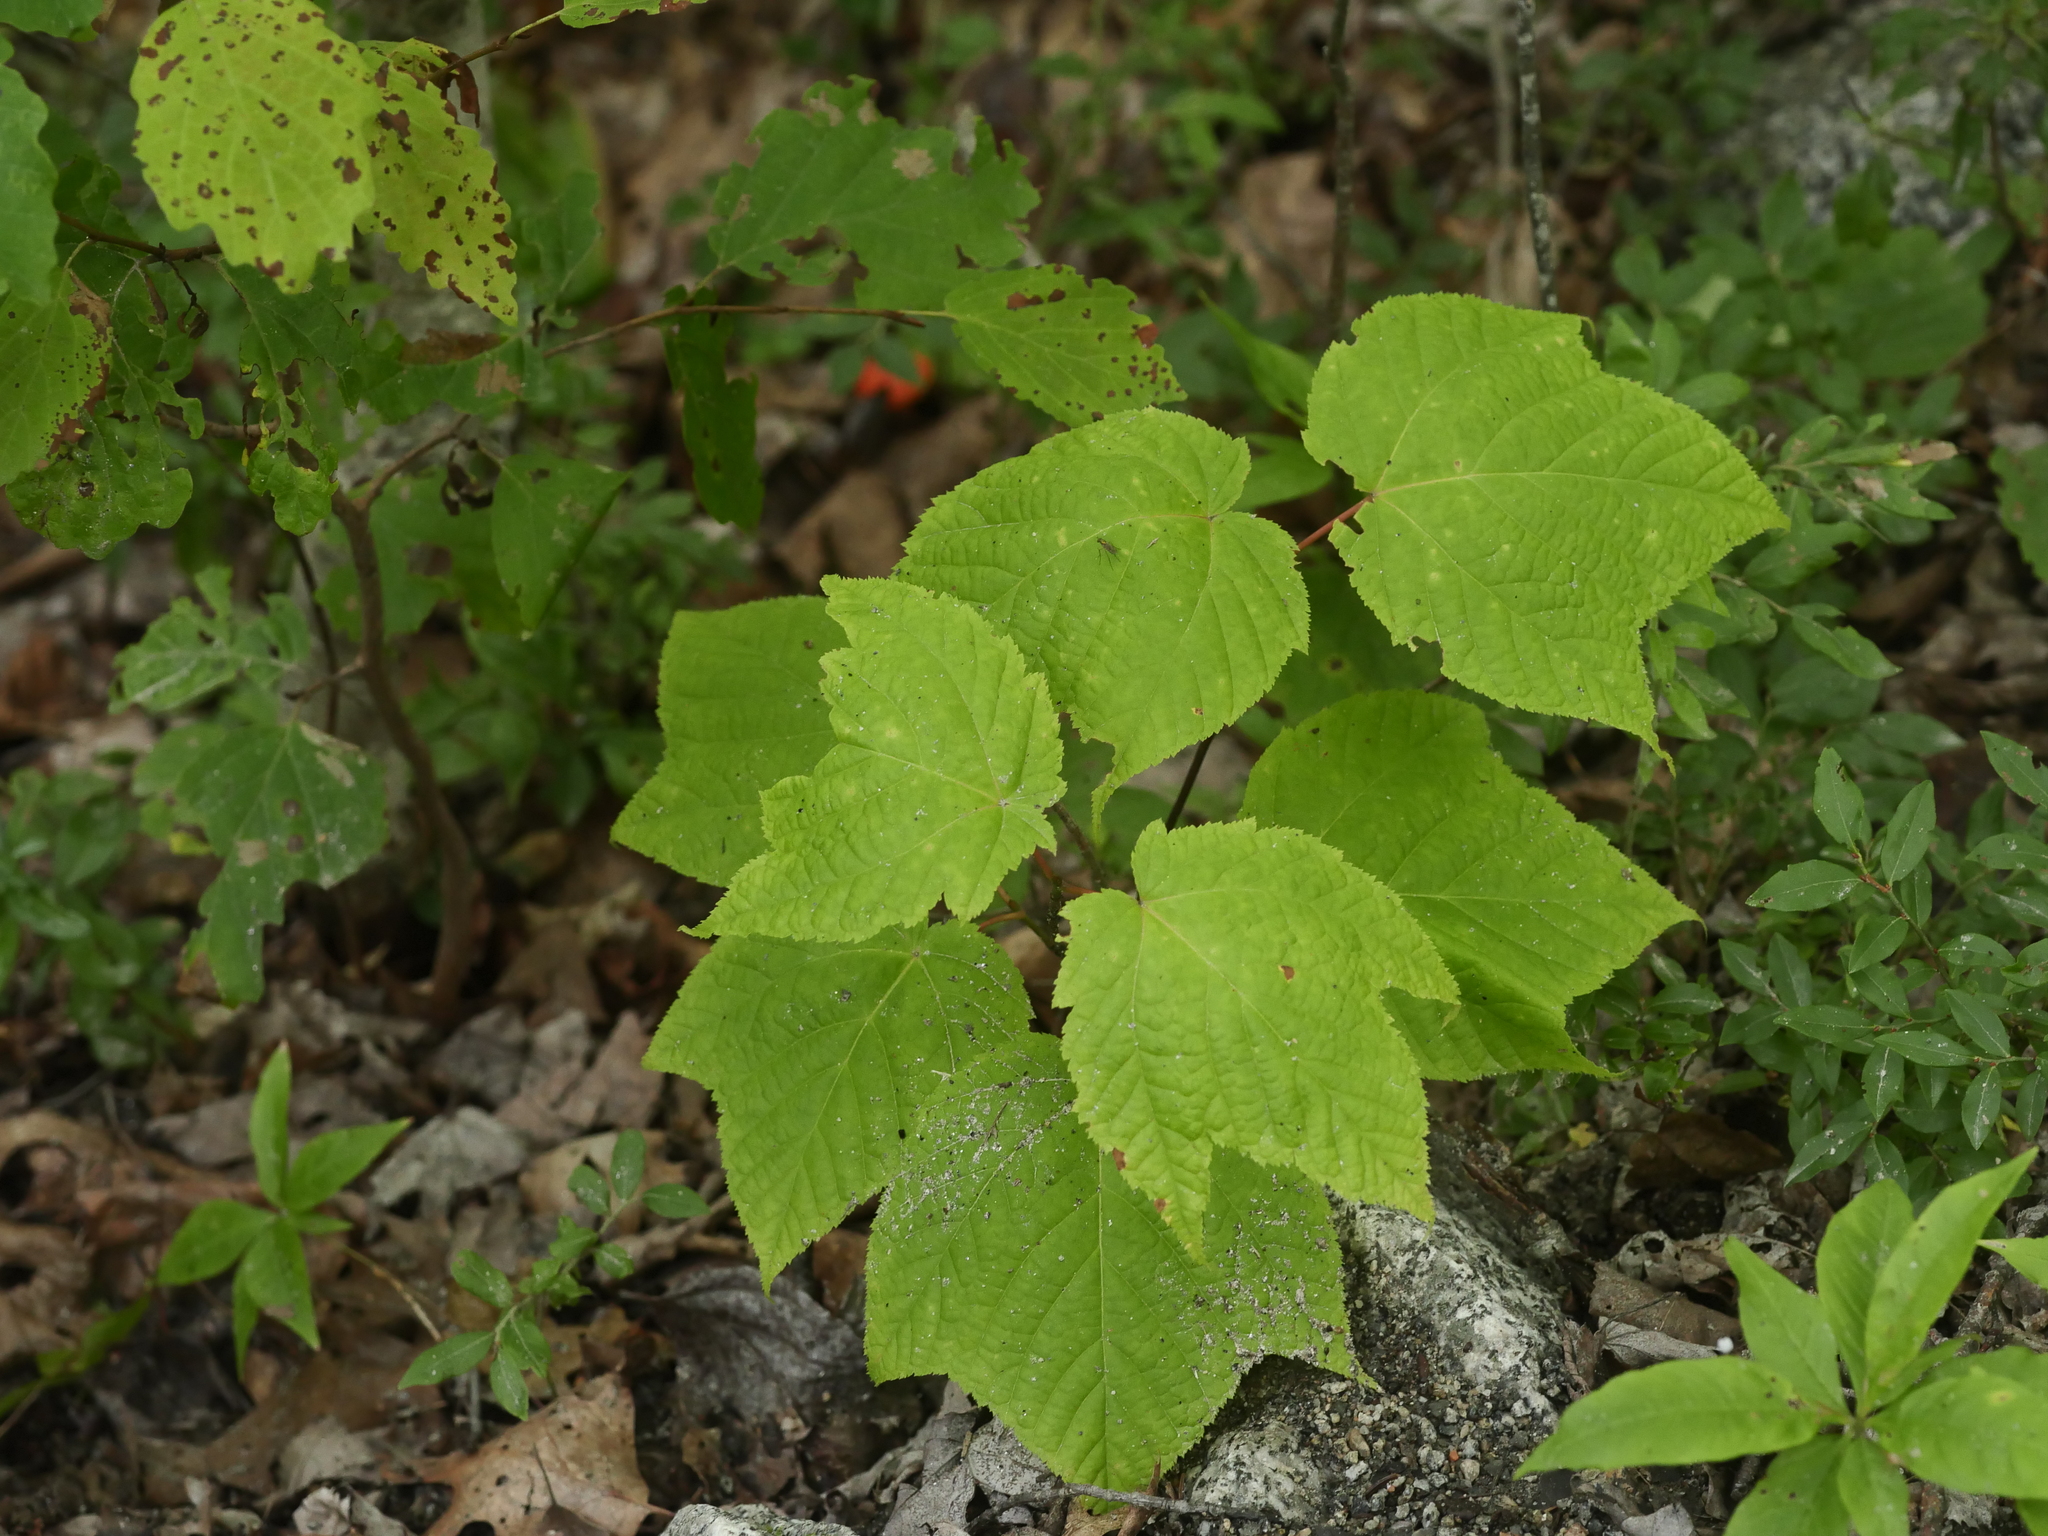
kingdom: Plantae
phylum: Tracheophyta
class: Magnoliopsida
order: Sapindales
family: Sapindaceae
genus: Acer
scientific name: Acer pensylvanicum
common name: Moosewood
